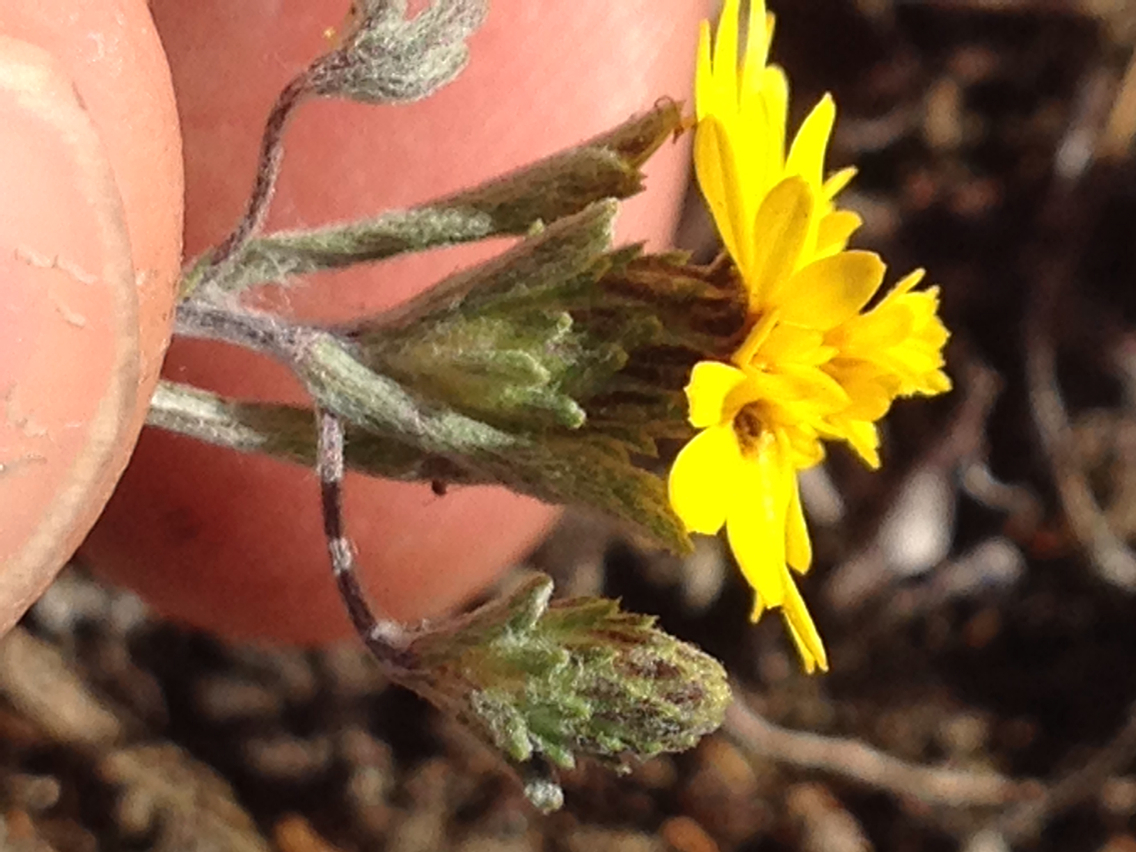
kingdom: Plantae
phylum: Tracheophyta
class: Magnoliopsida
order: Asterales
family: Asteraceae
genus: Lessingia
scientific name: Lessingia germanorum
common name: San francisco lessingia
